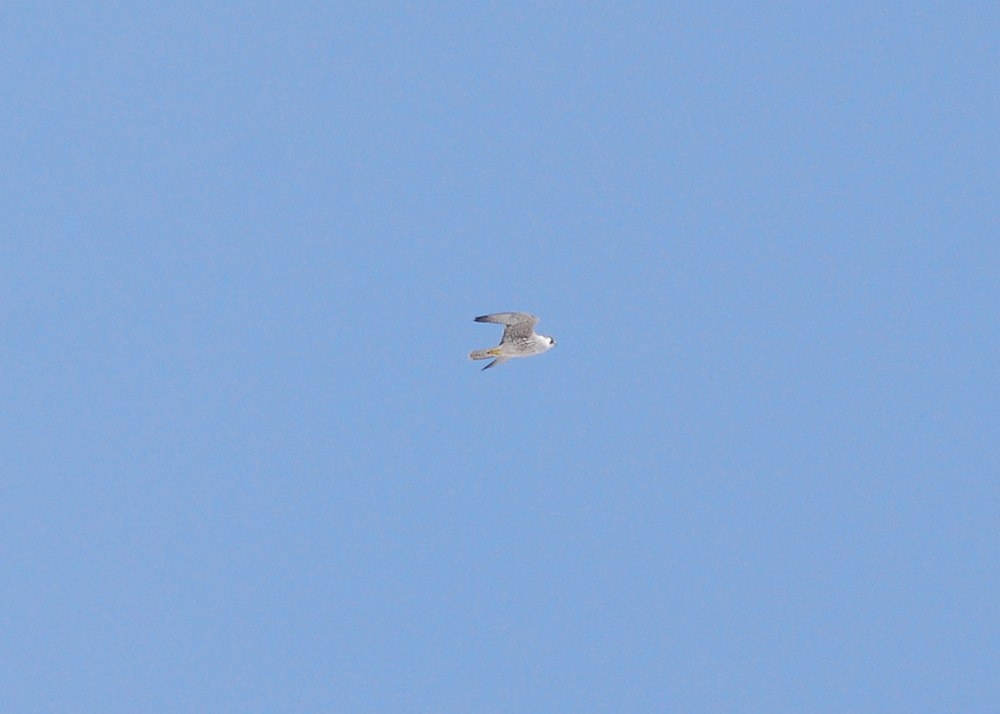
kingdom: Animalia
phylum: Chordata
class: Aves
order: Falconiformes
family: Falconidae
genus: Falco
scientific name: Falco peregrinus
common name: Peregrine falcon
